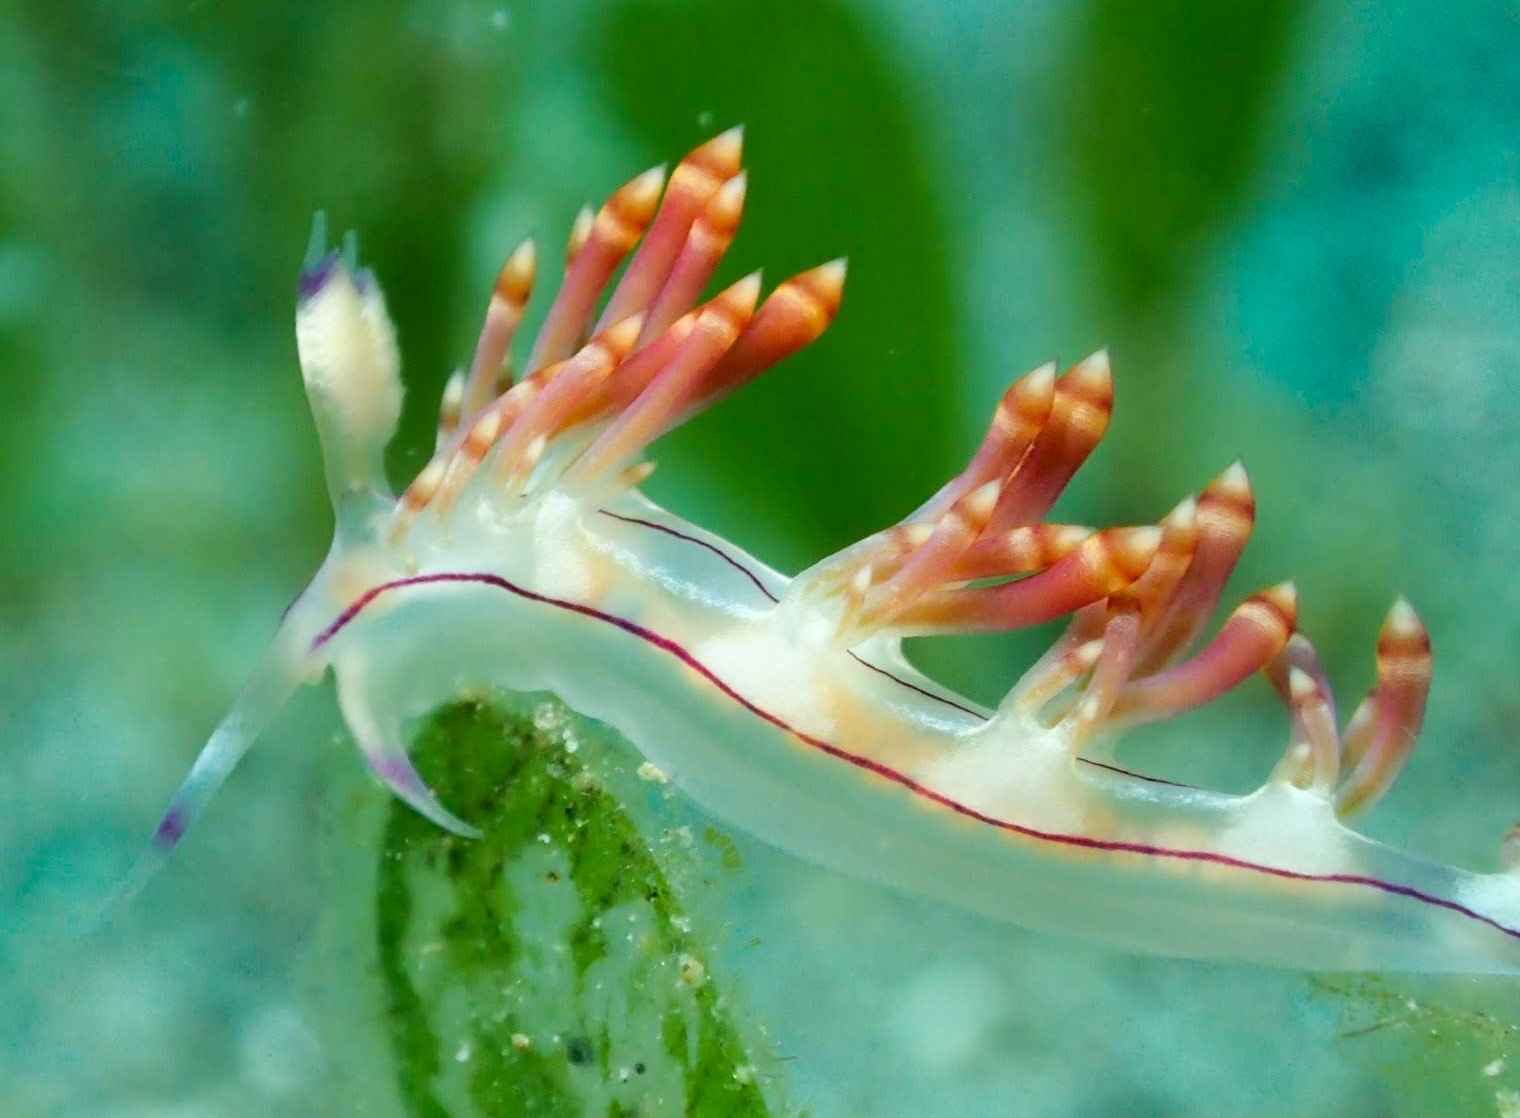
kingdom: Animalia
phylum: Mollusca
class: Gastropoda
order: Nudibranchia
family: Flabellinidae
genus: Coryphellina
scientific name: Coryphellina flamma
